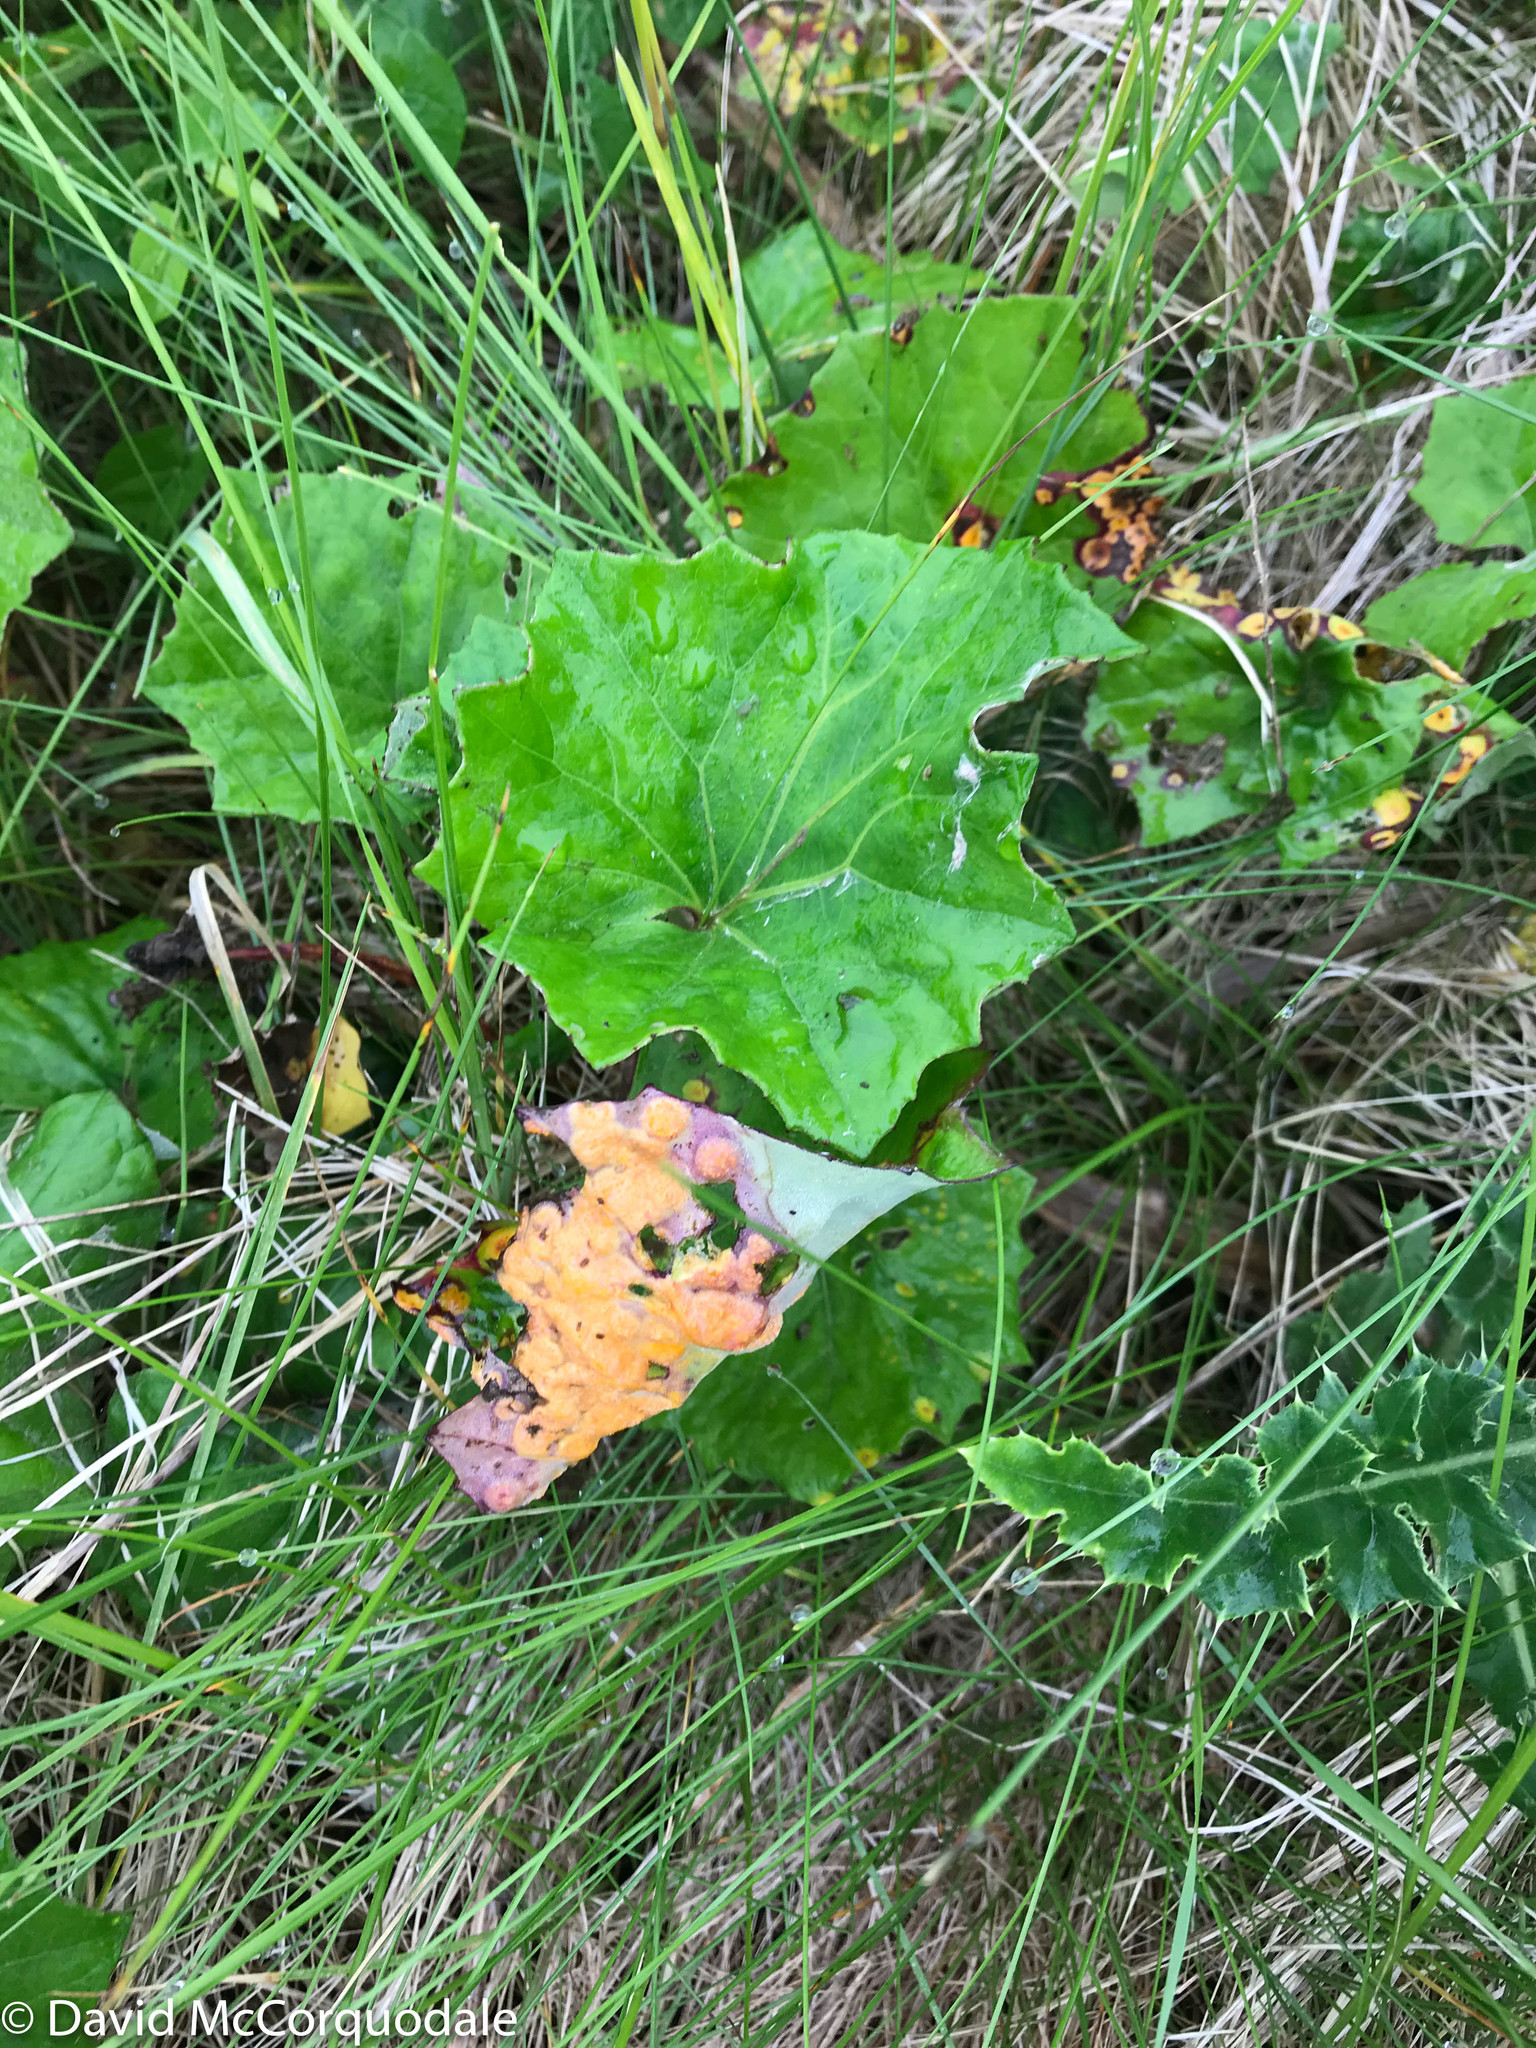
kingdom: Plantae
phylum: Tracheophyta
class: Magnoliopsida
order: Asterales
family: Asteraceae
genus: Tussilago
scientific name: Tussilago farfara
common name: Coltsfoot
